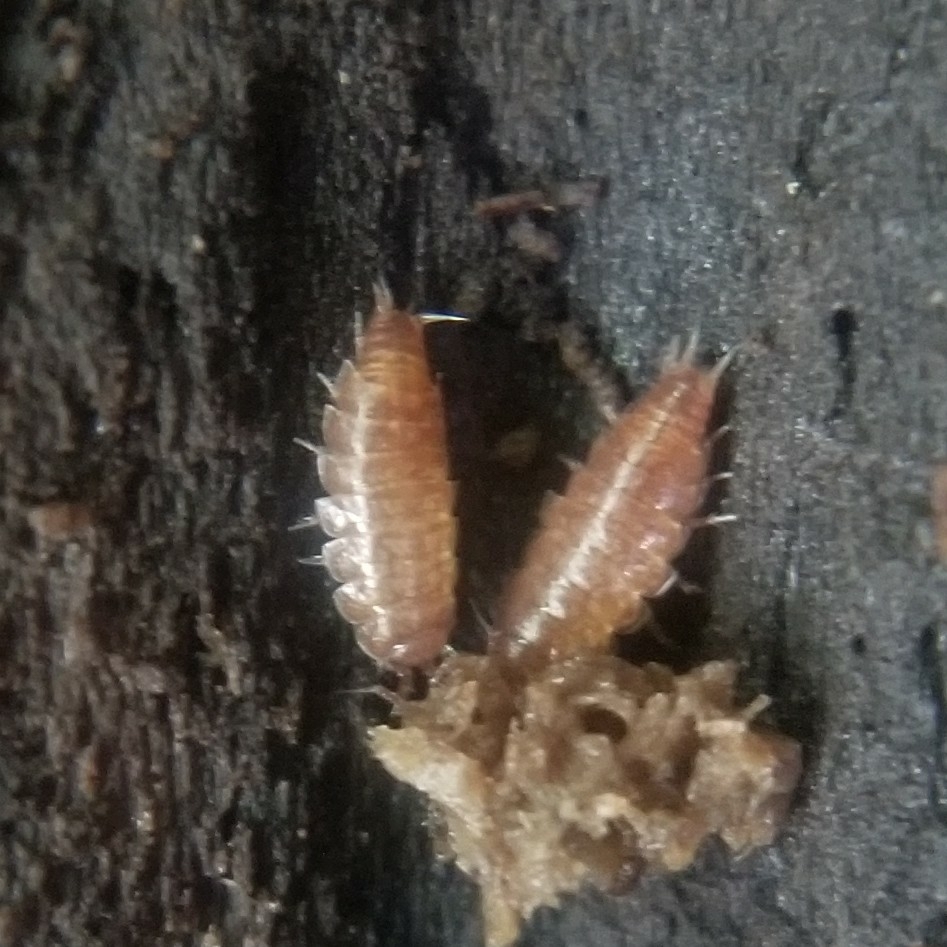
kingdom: Animalia
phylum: Arthropoda
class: Malacostraca
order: Isopoda
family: Trichoniscidae
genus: Hyloniscus
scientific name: Hyloniscus riparius
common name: Isopod
